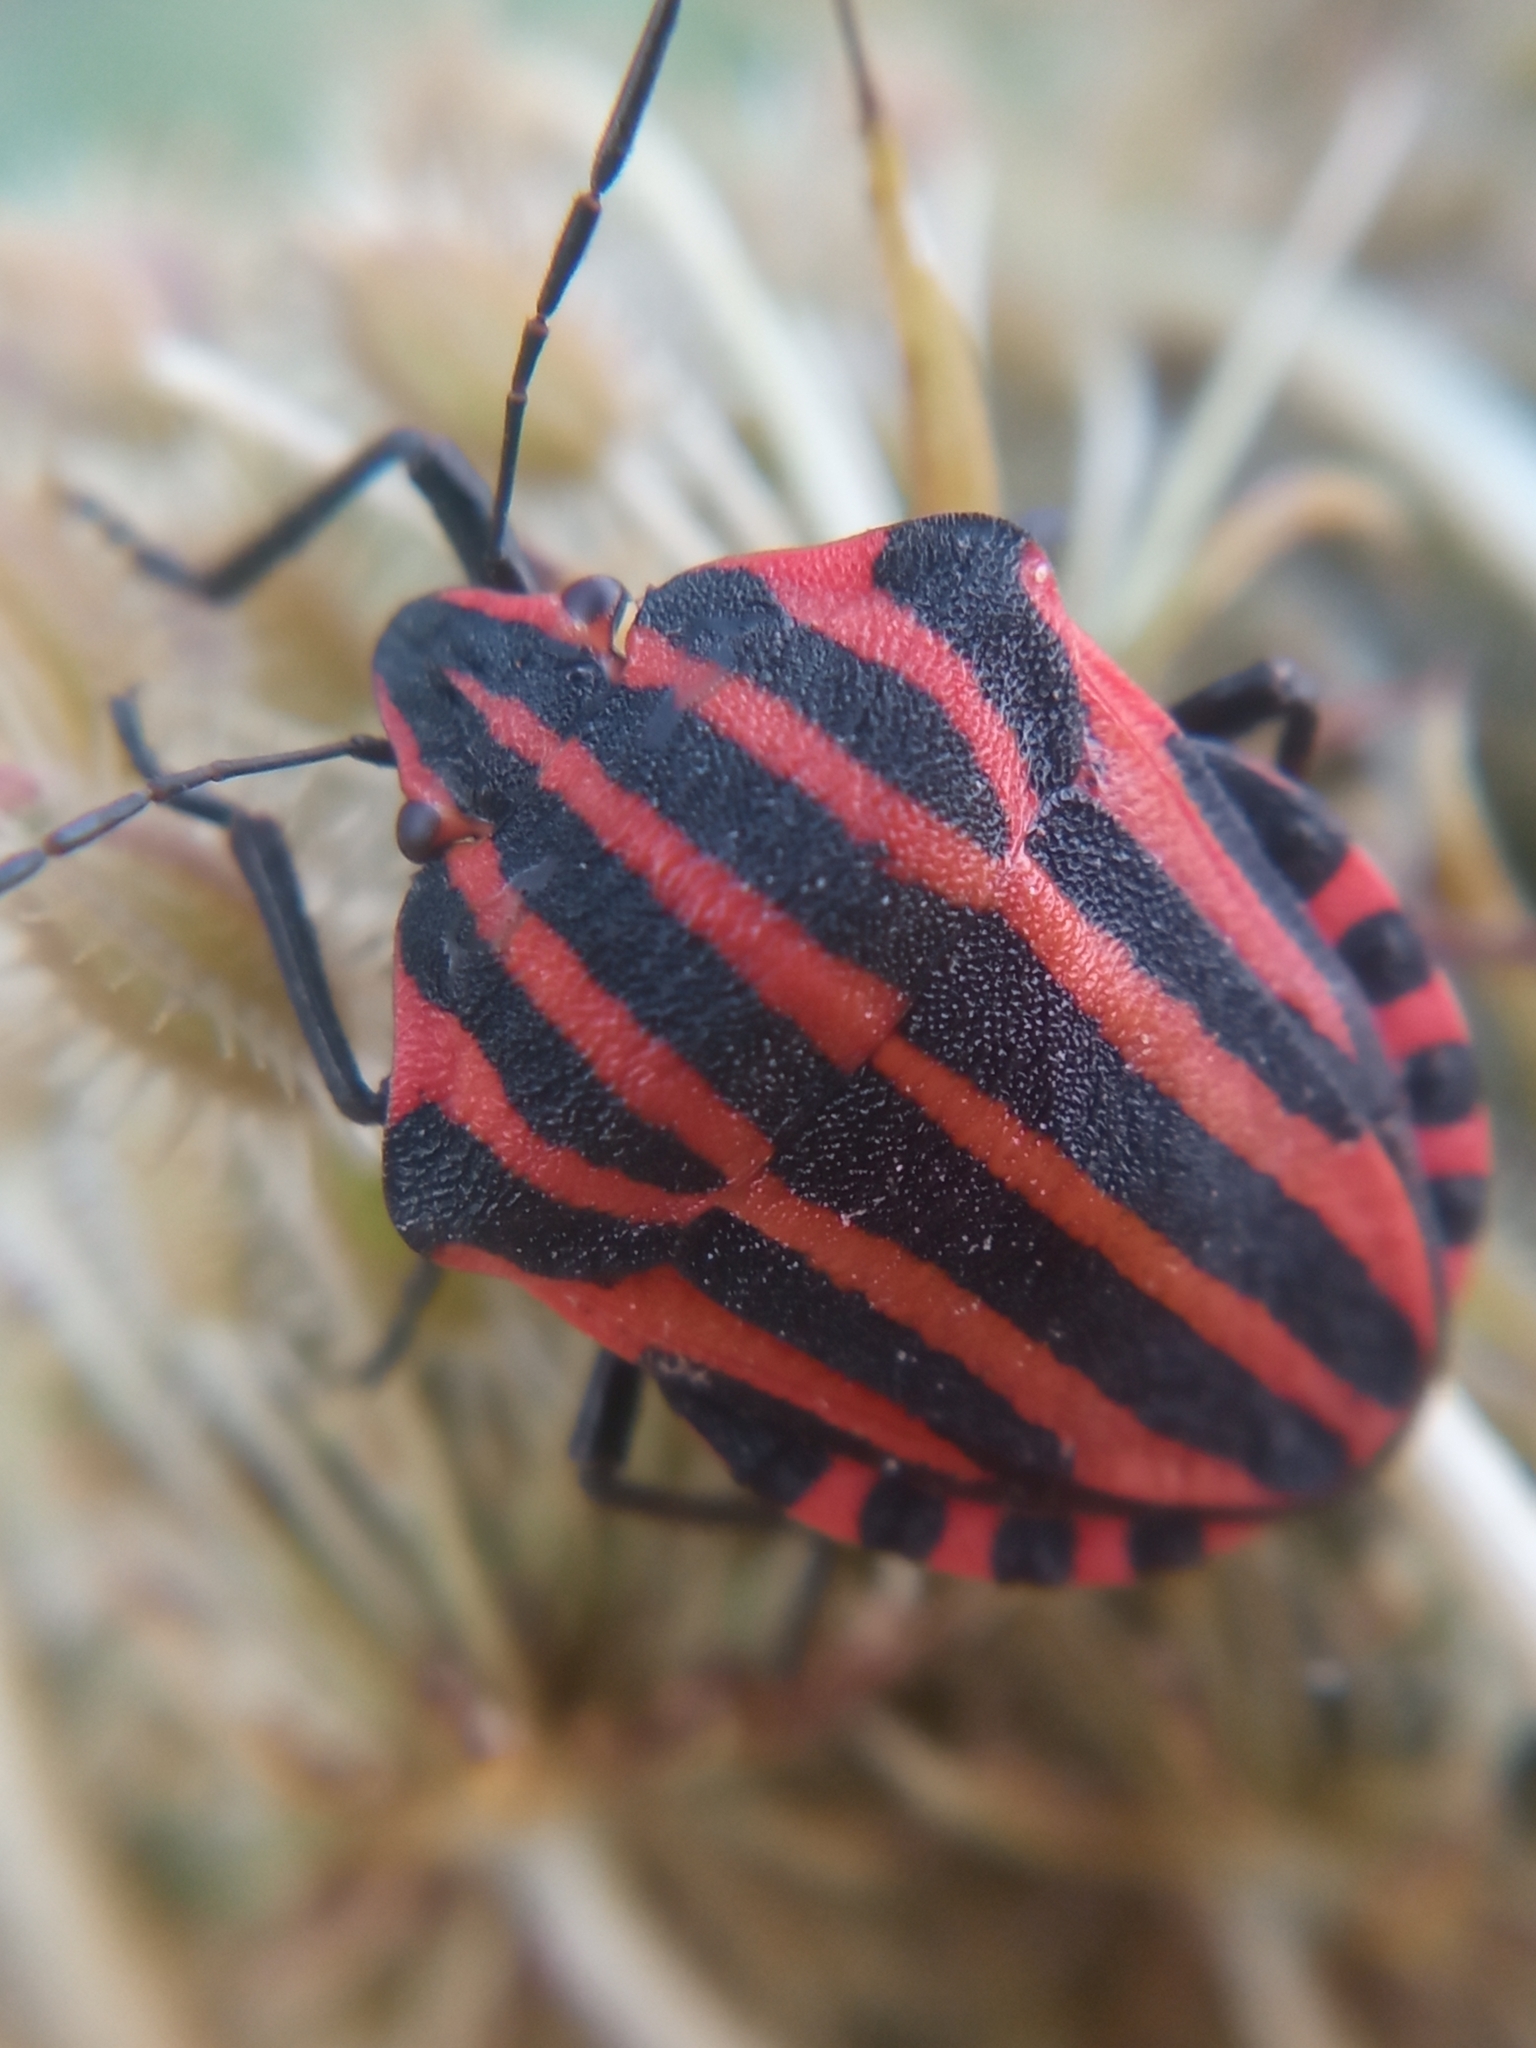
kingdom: Animalia
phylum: Arthropoda
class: Insecta
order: Hemiptera
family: Pentatomidae
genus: Graphosoma
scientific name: Graphosoma italicum
